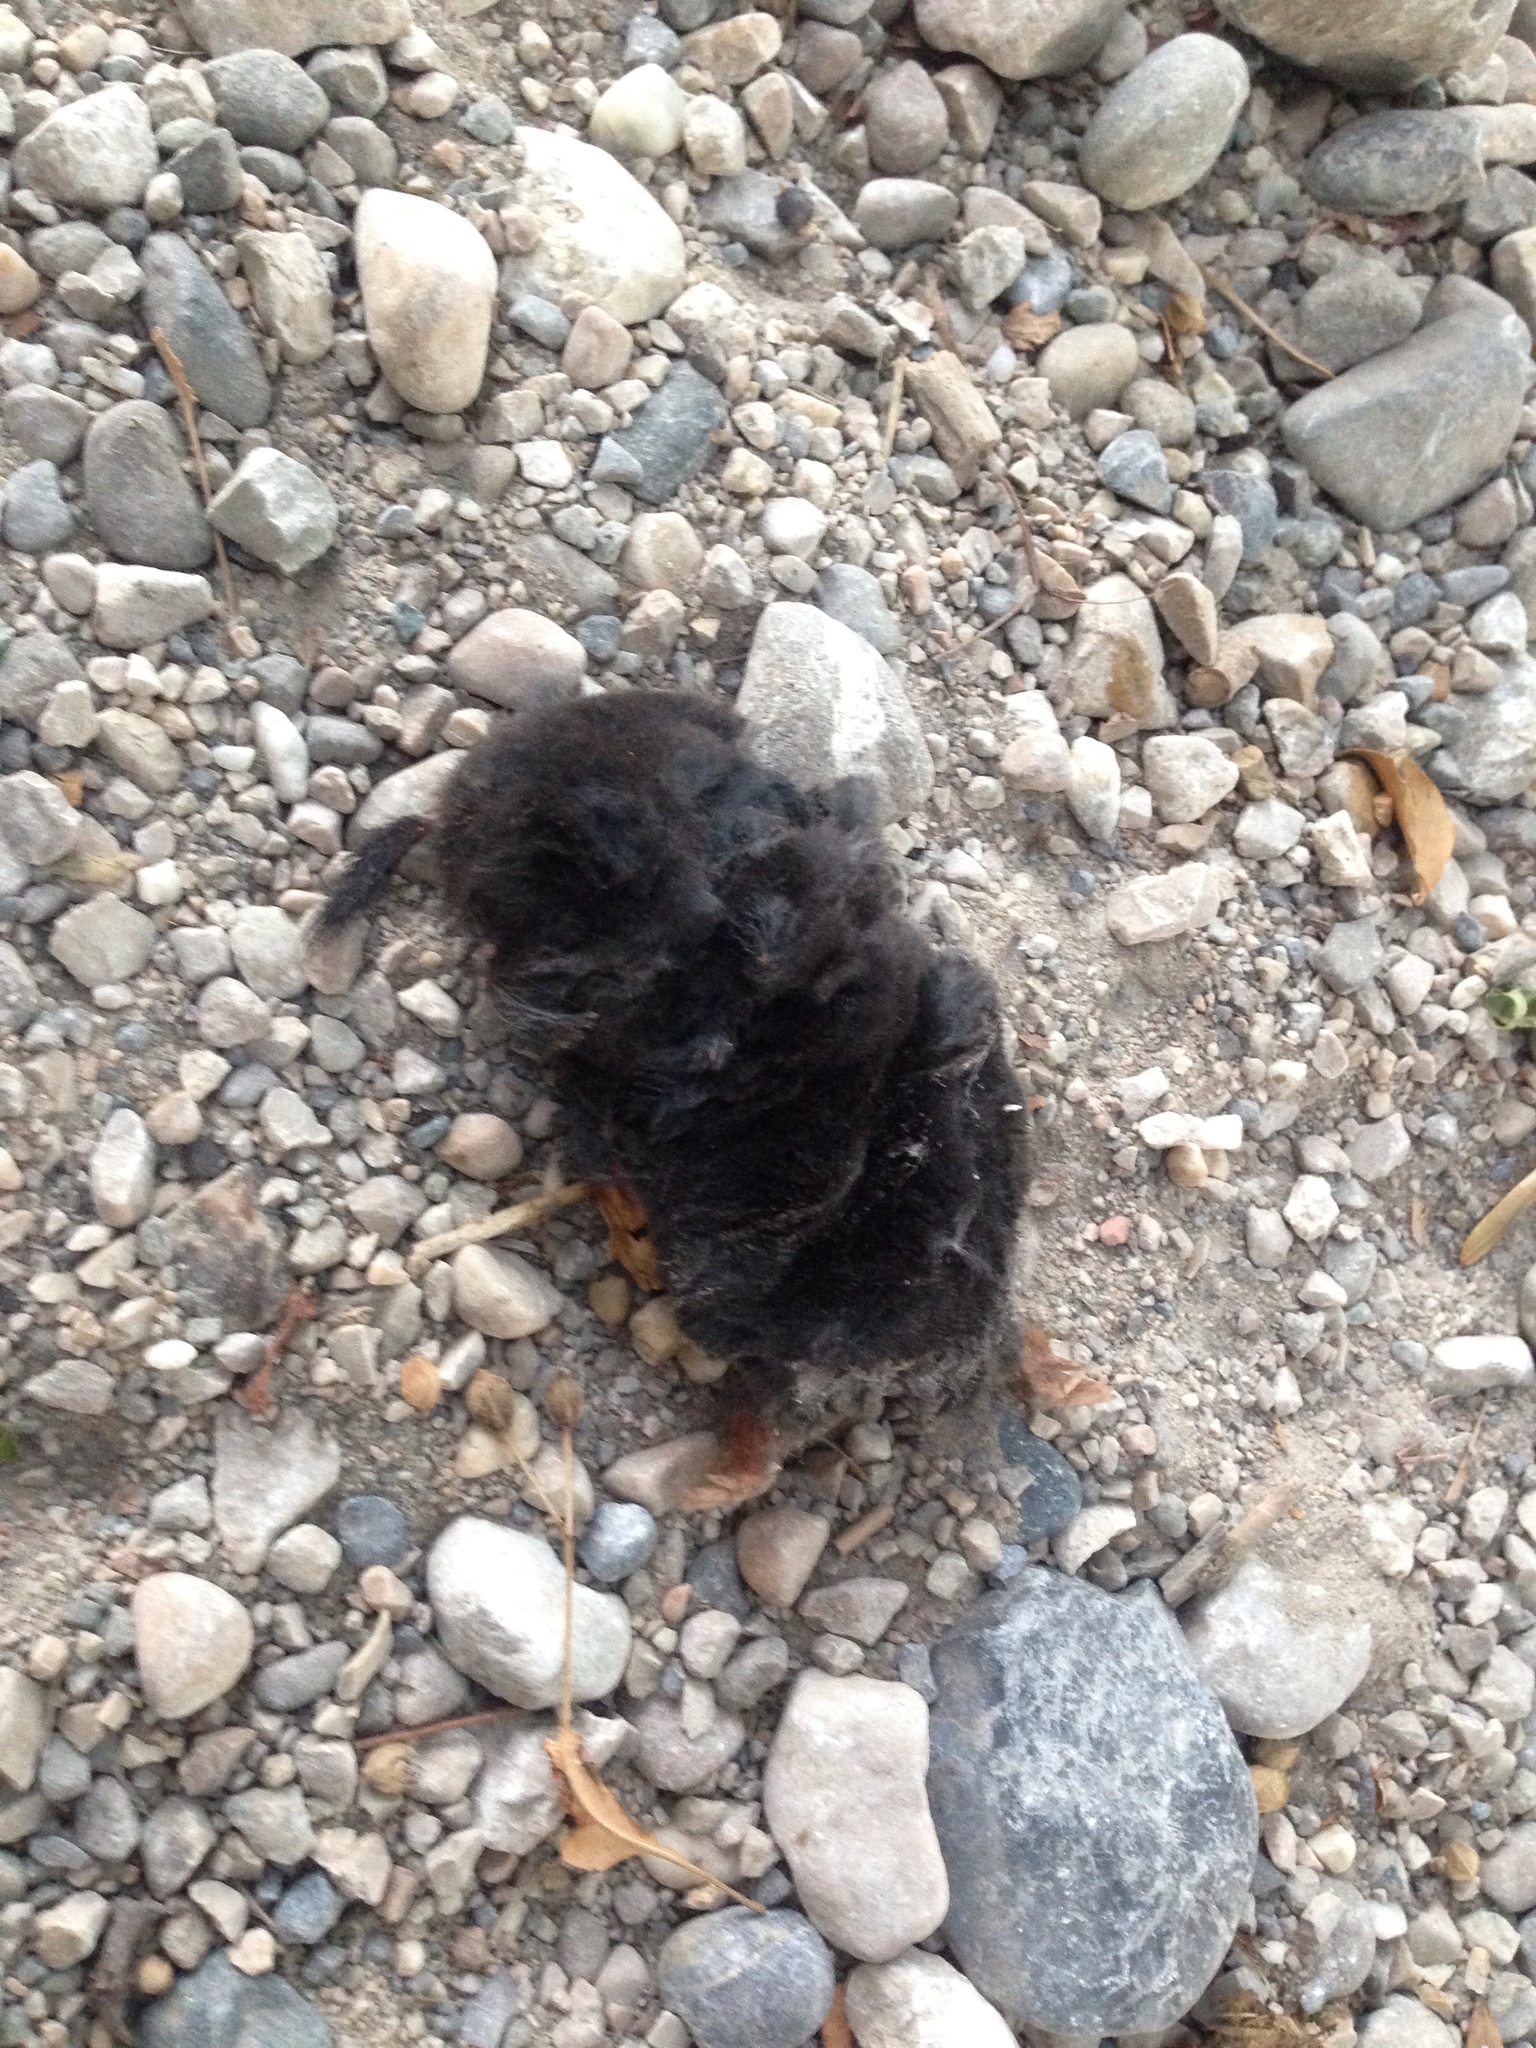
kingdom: Animalia
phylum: Chordata
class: Mammalia
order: Soricomorpha
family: Talpidae
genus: Talpa
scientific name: Talpa europaea
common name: European mole
